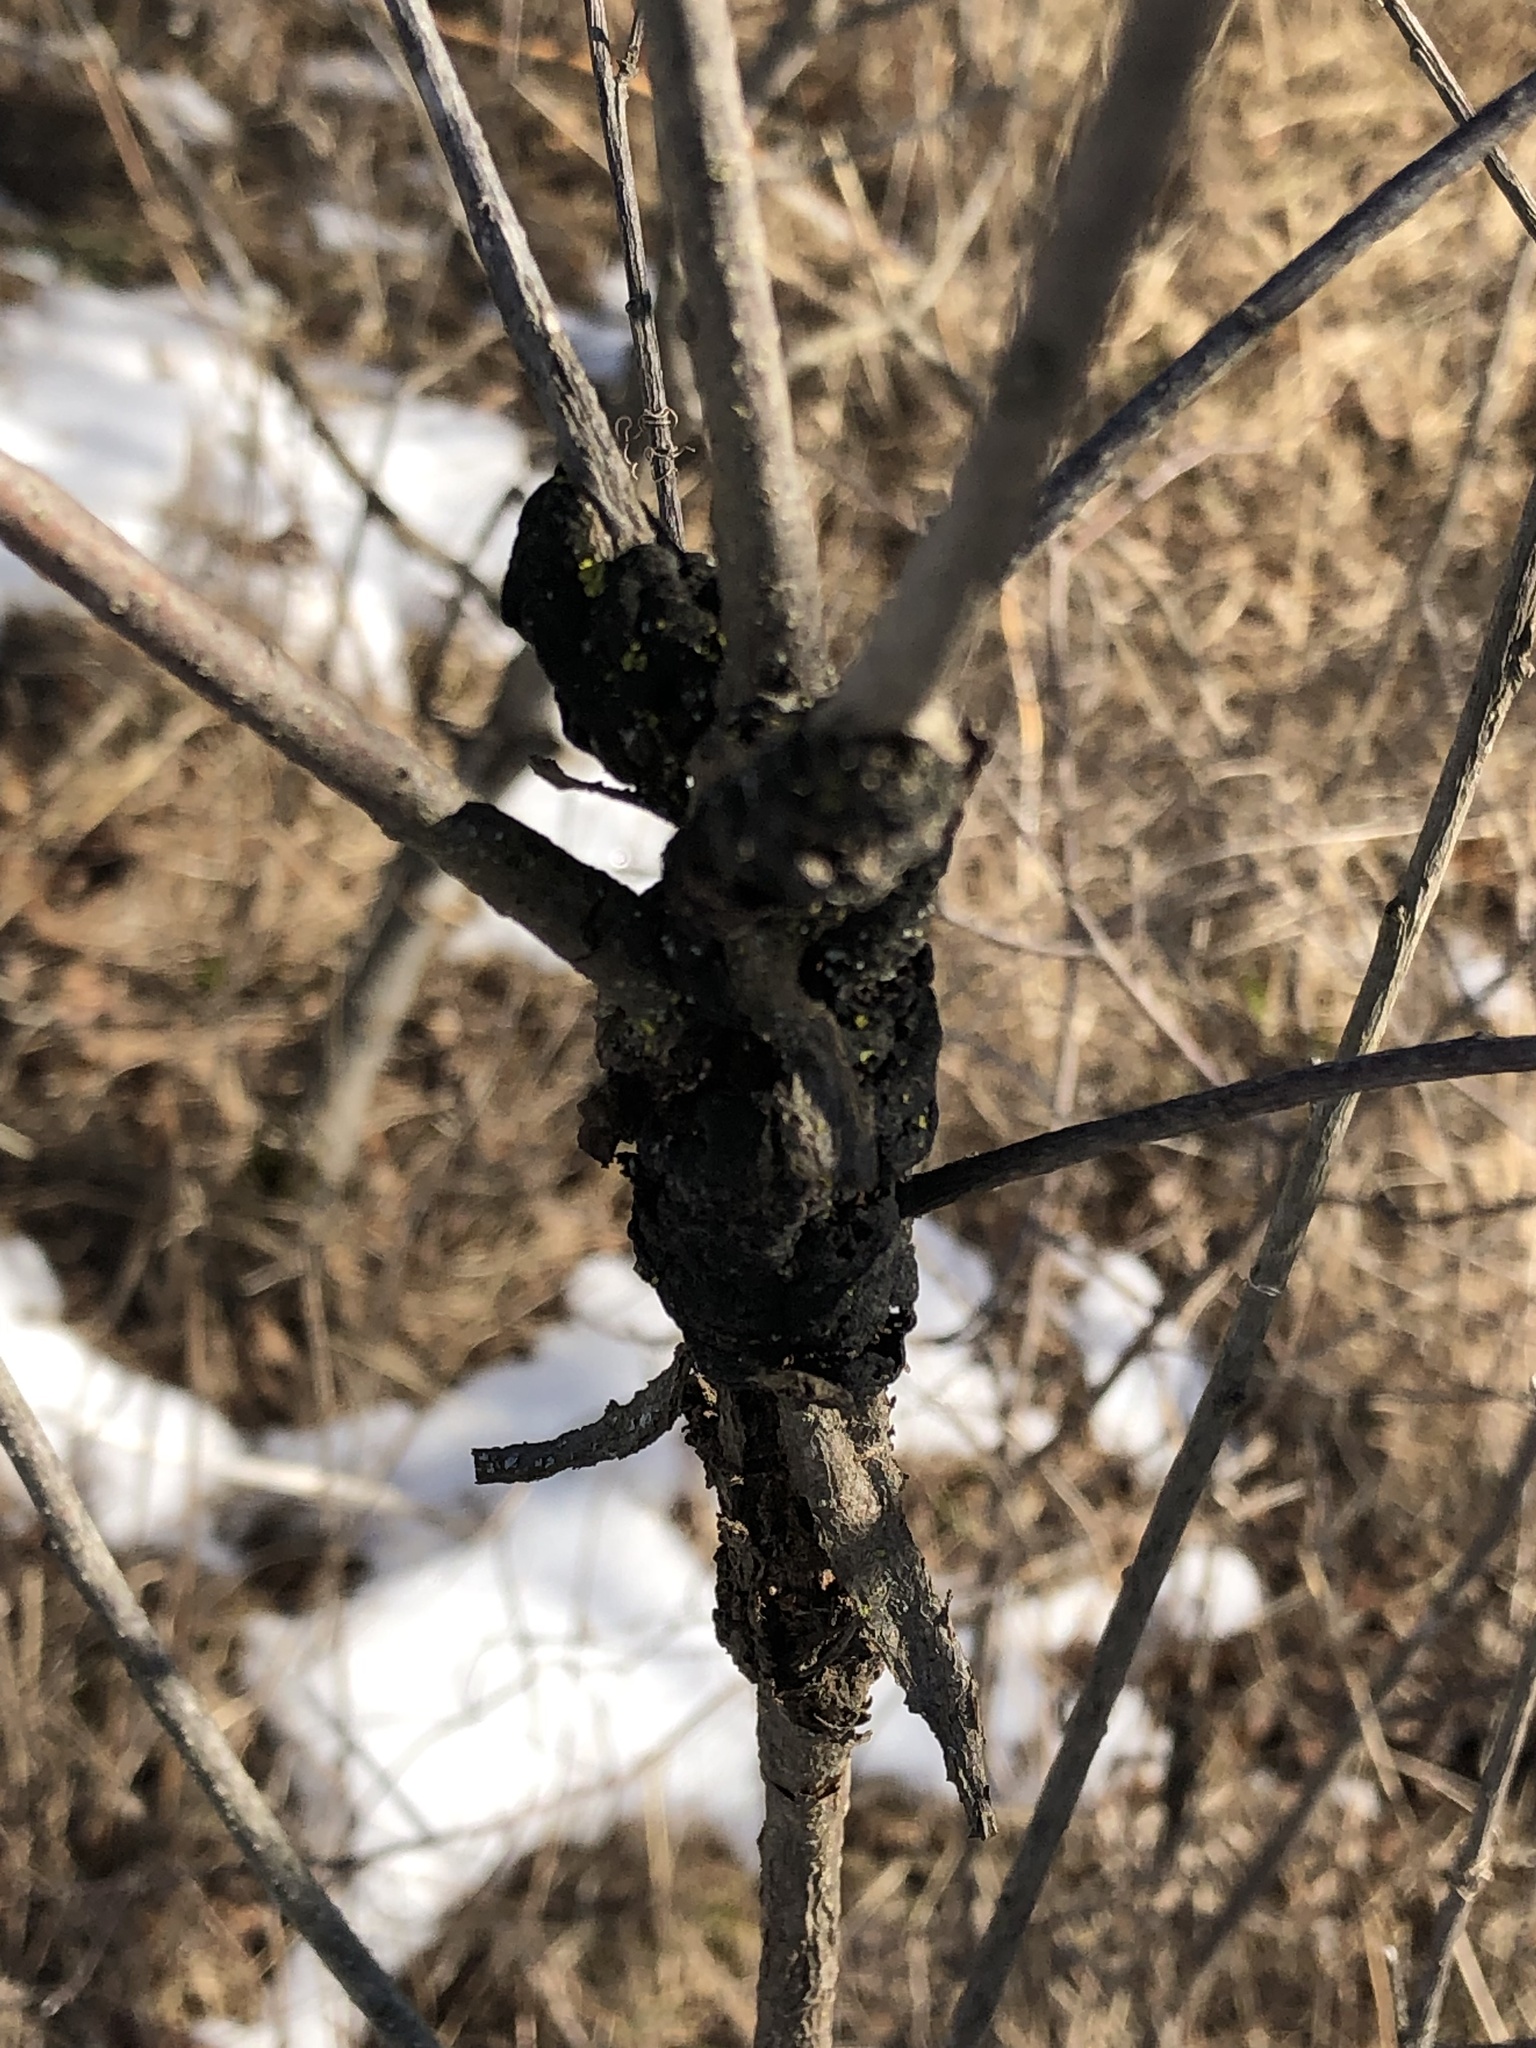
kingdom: Fungi
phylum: Ascomycota
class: Dothideomycetes
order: Venturiales
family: Venturiaceae
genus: Apiosporina
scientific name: Apiosporina morbosa
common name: Black knot
